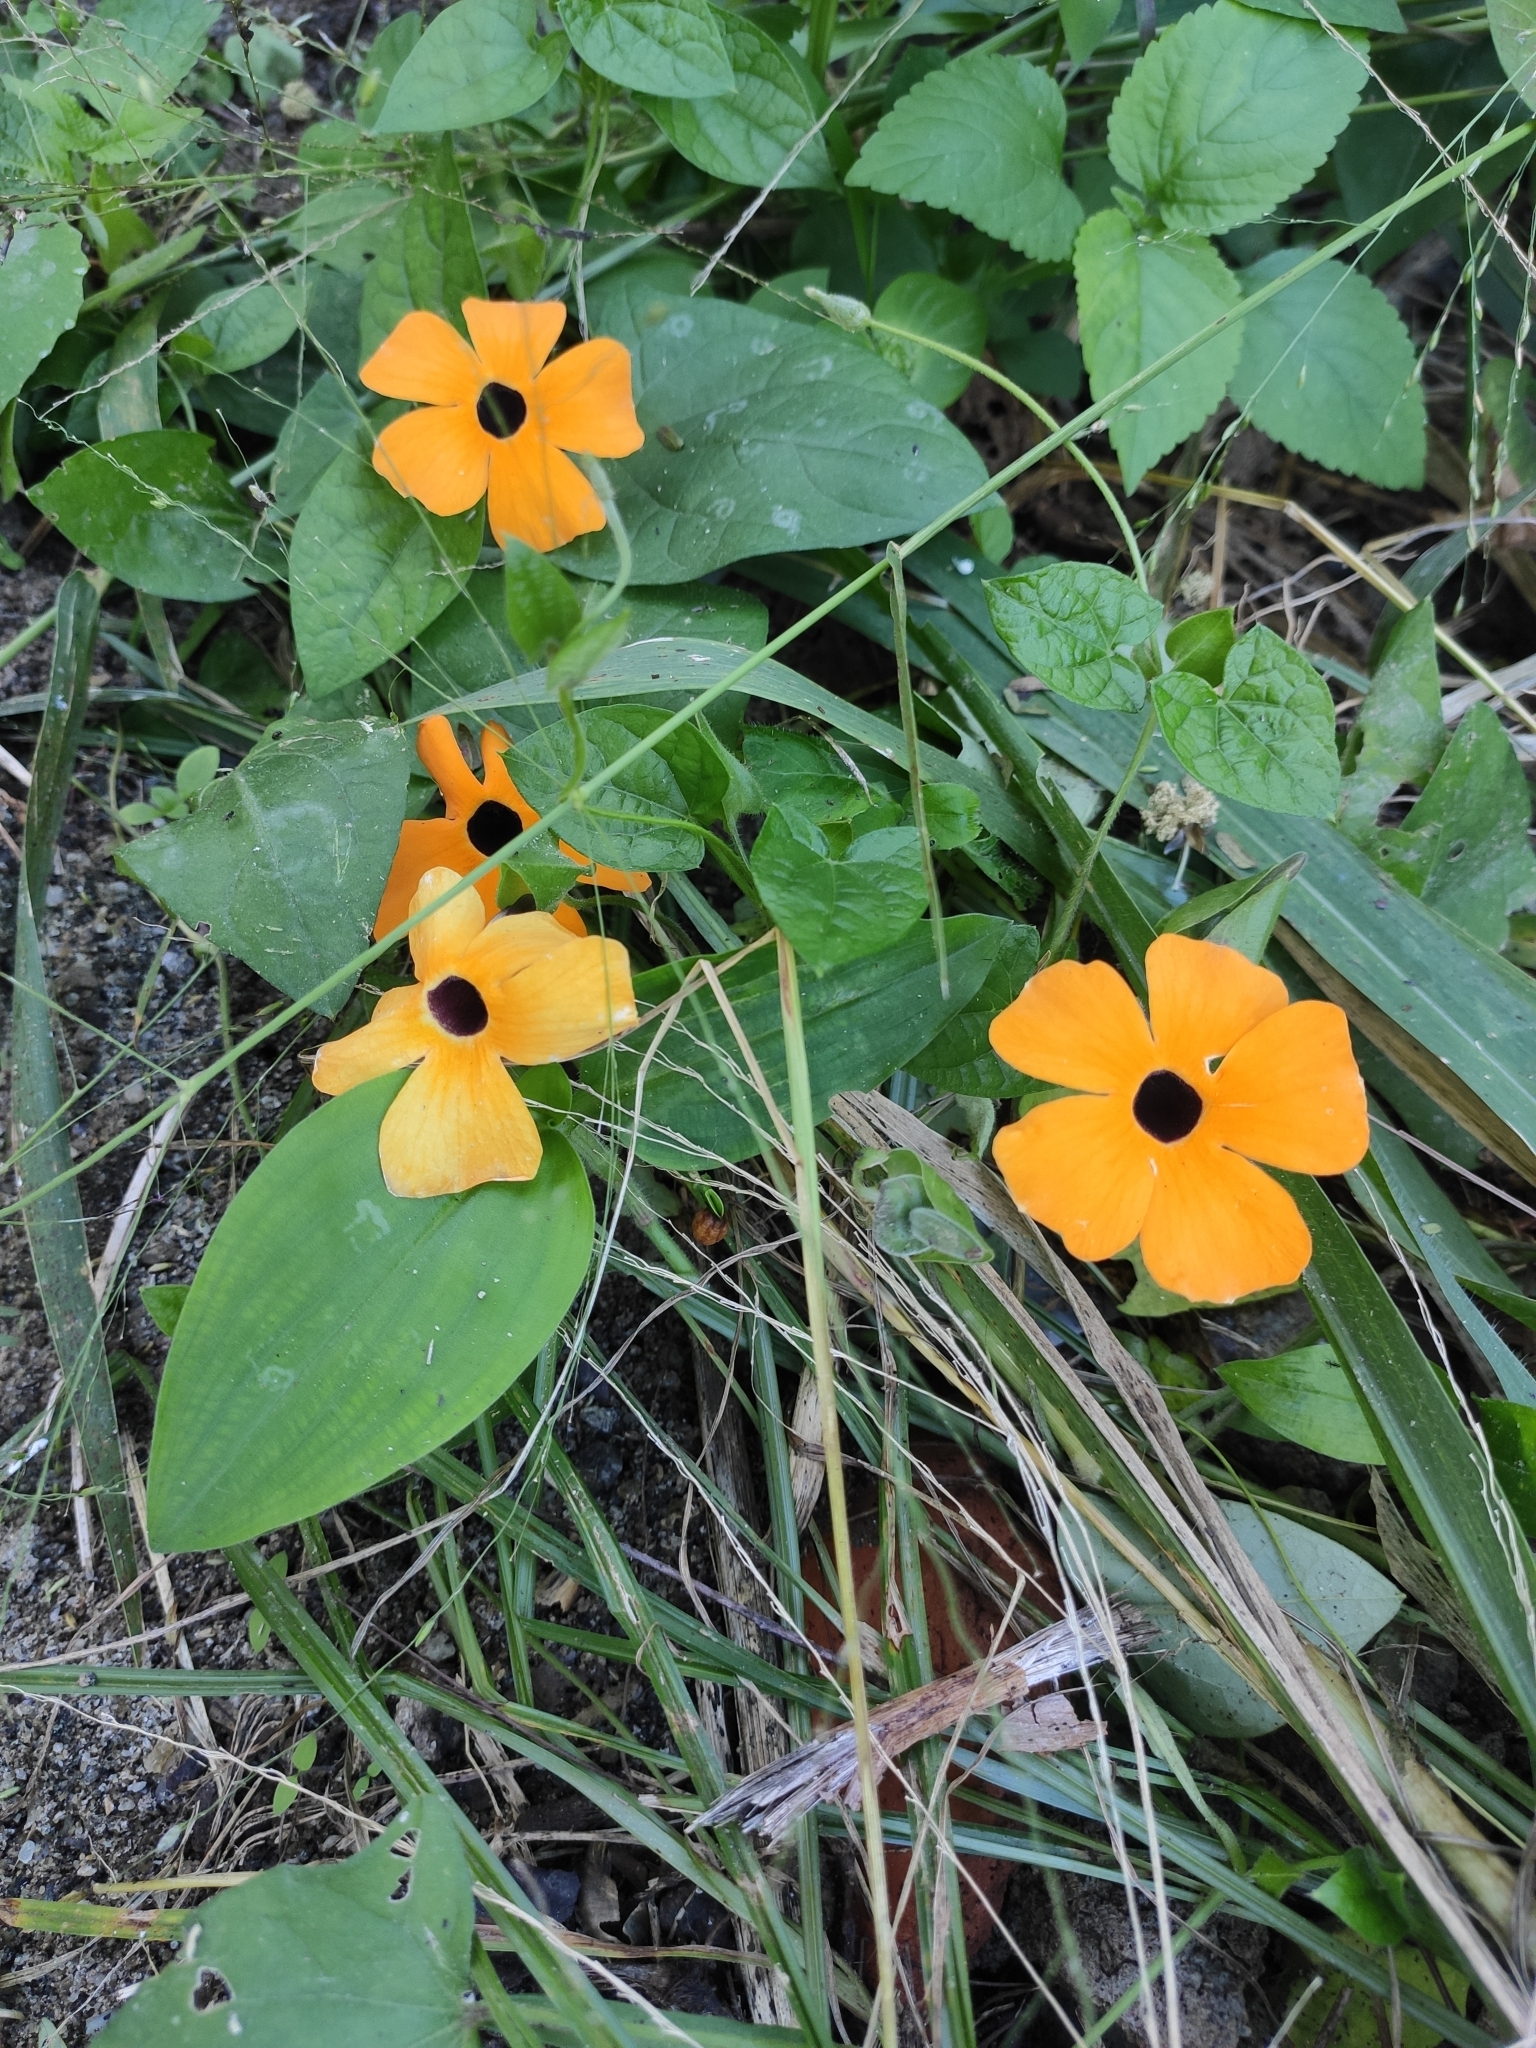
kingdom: Plantae
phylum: Tracheophyta
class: Magnoliopsida
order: Lamiales
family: Acanthaceae
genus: Thunbergia
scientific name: Thunbergia alata
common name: Blackeyed susan vine
